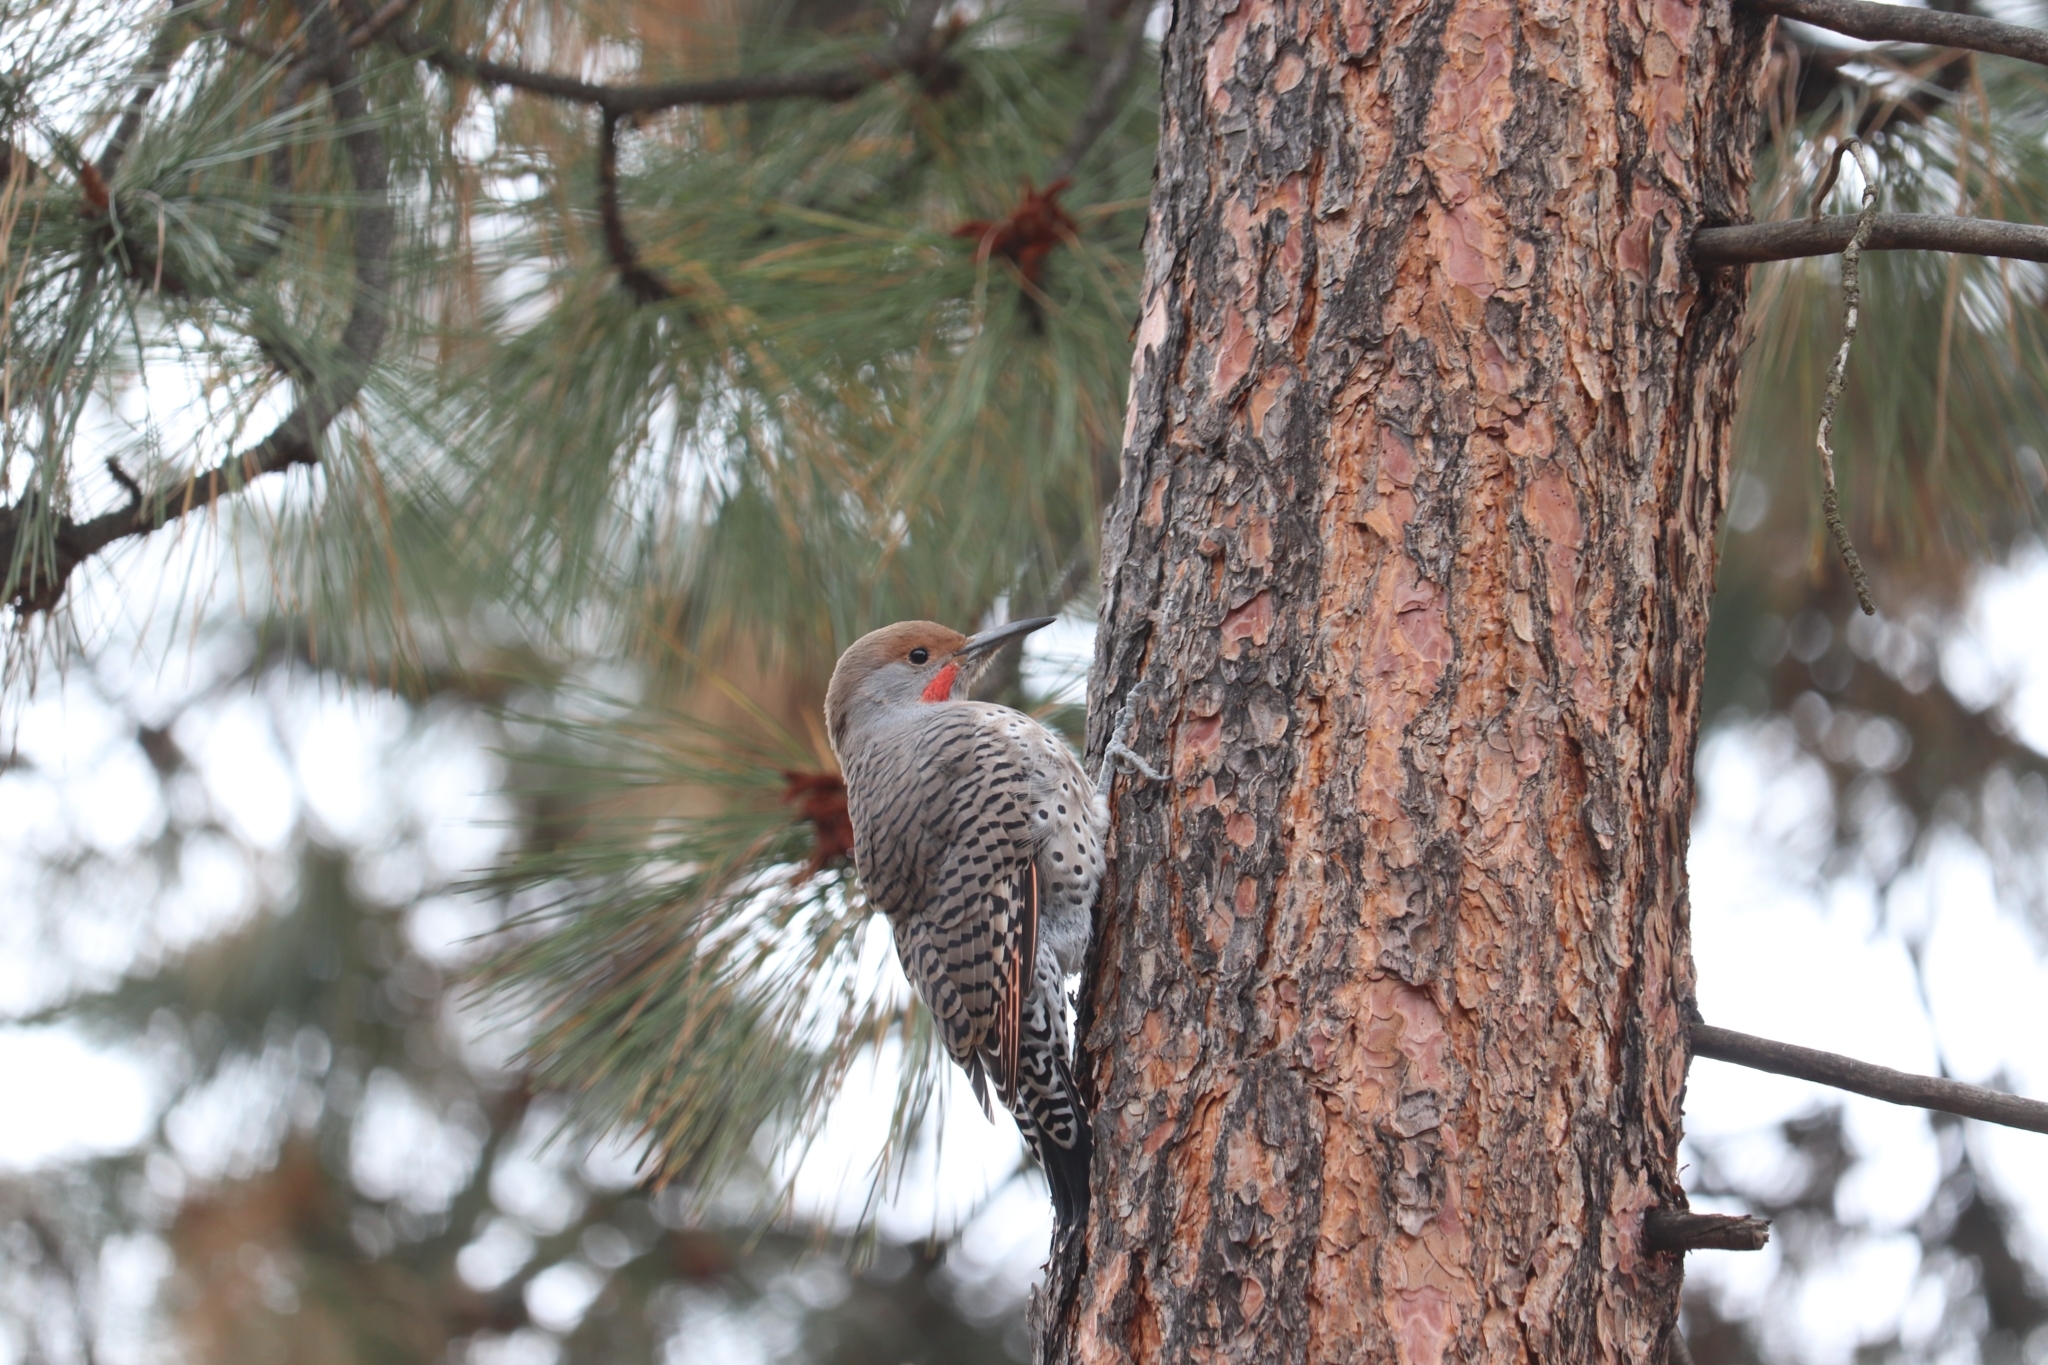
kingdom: Animalia
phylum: Chordata
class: Aves
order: Piciformes
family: Picidae
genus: Colaptes
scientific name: Colaptes auratus
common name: Northern flicker
